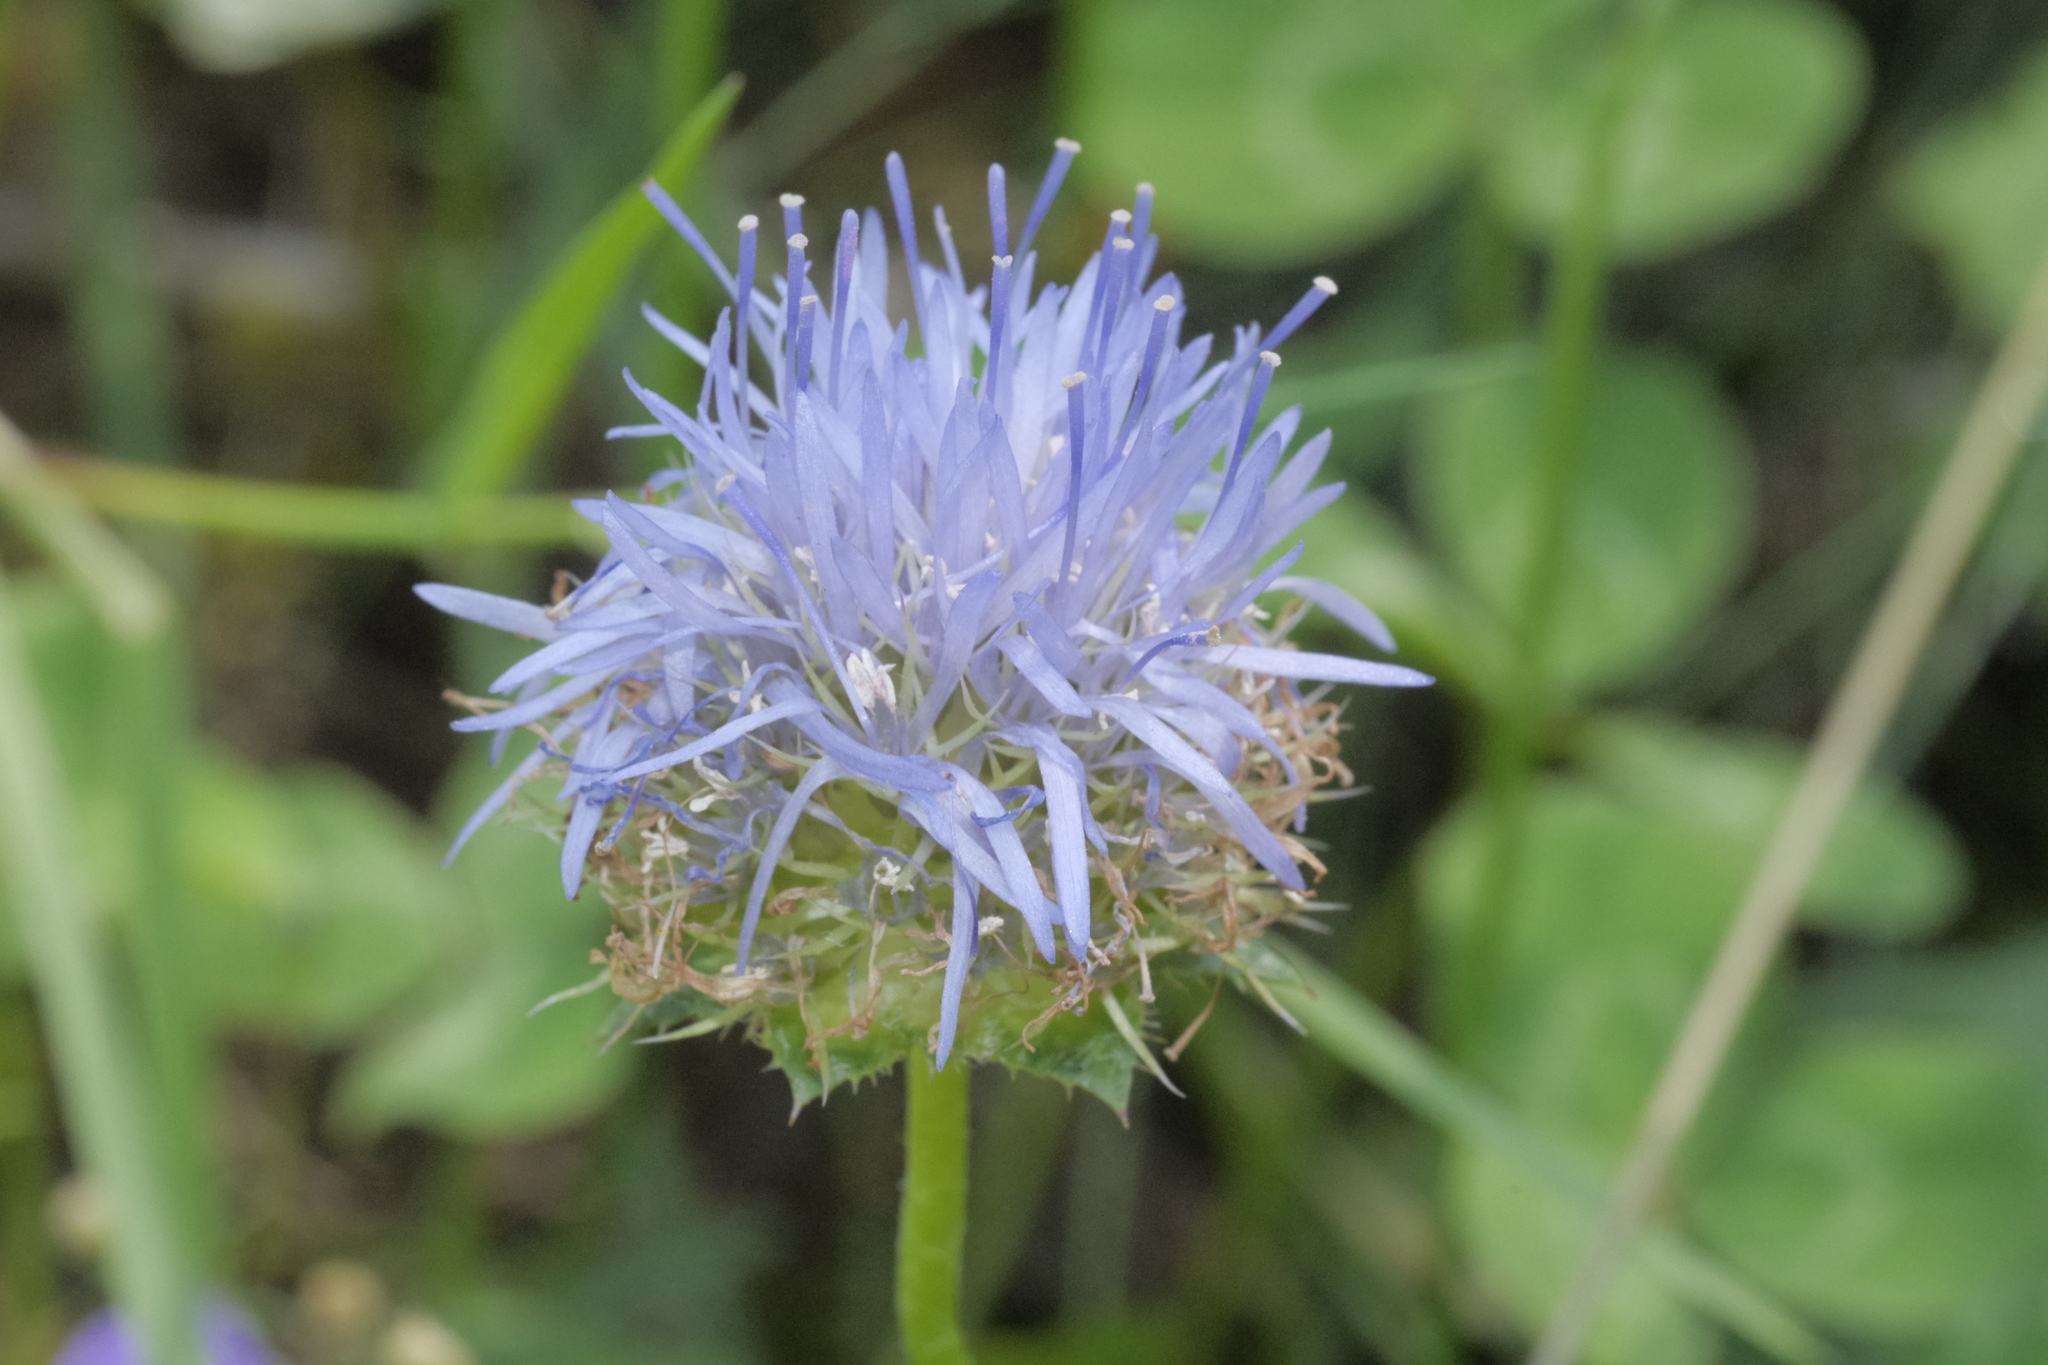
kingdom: Plantae
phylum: Tracheophyta
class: Magnoliopsida
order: Asterales
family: Campanulaceae
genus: Jasione
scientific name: Jasione montana
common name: Sheep's-bit
